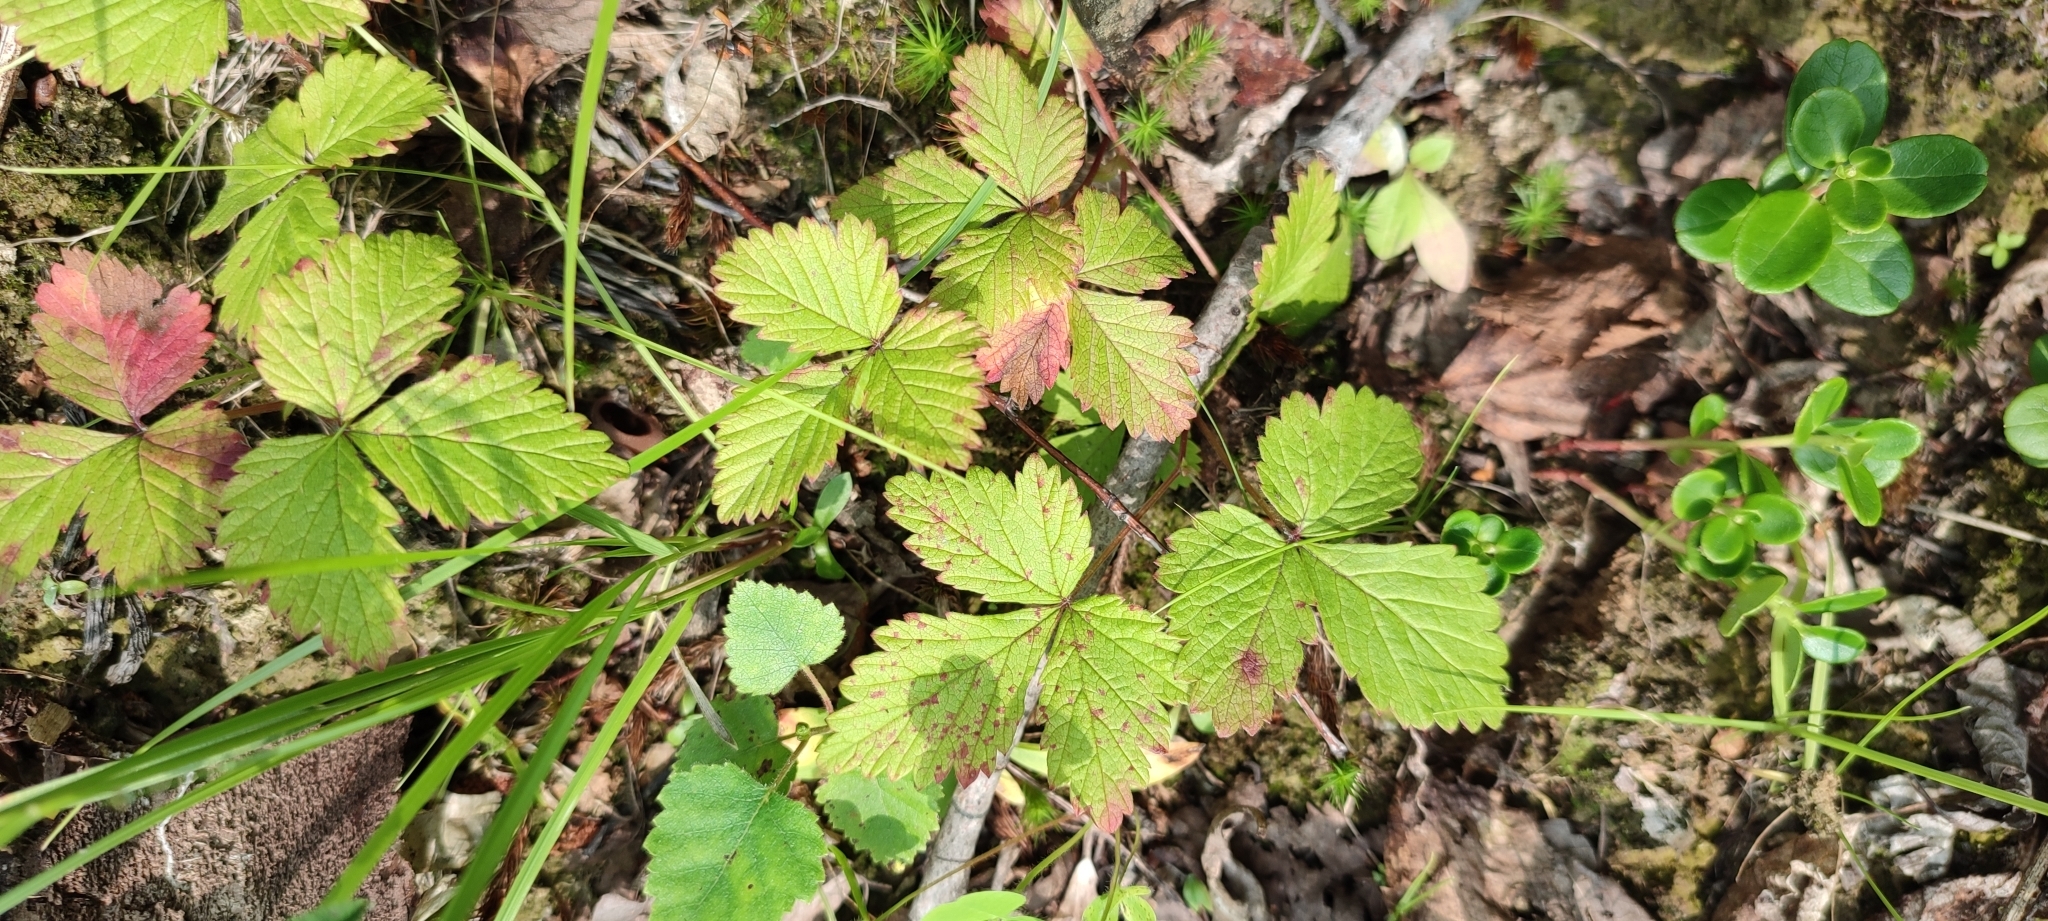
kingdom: Plantae
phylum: Tracheophyta
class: Magnoliopsida
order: Rosales
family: Rosaceae
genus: Rubus
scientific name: Rubus arcticus
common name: Arctic bramble
